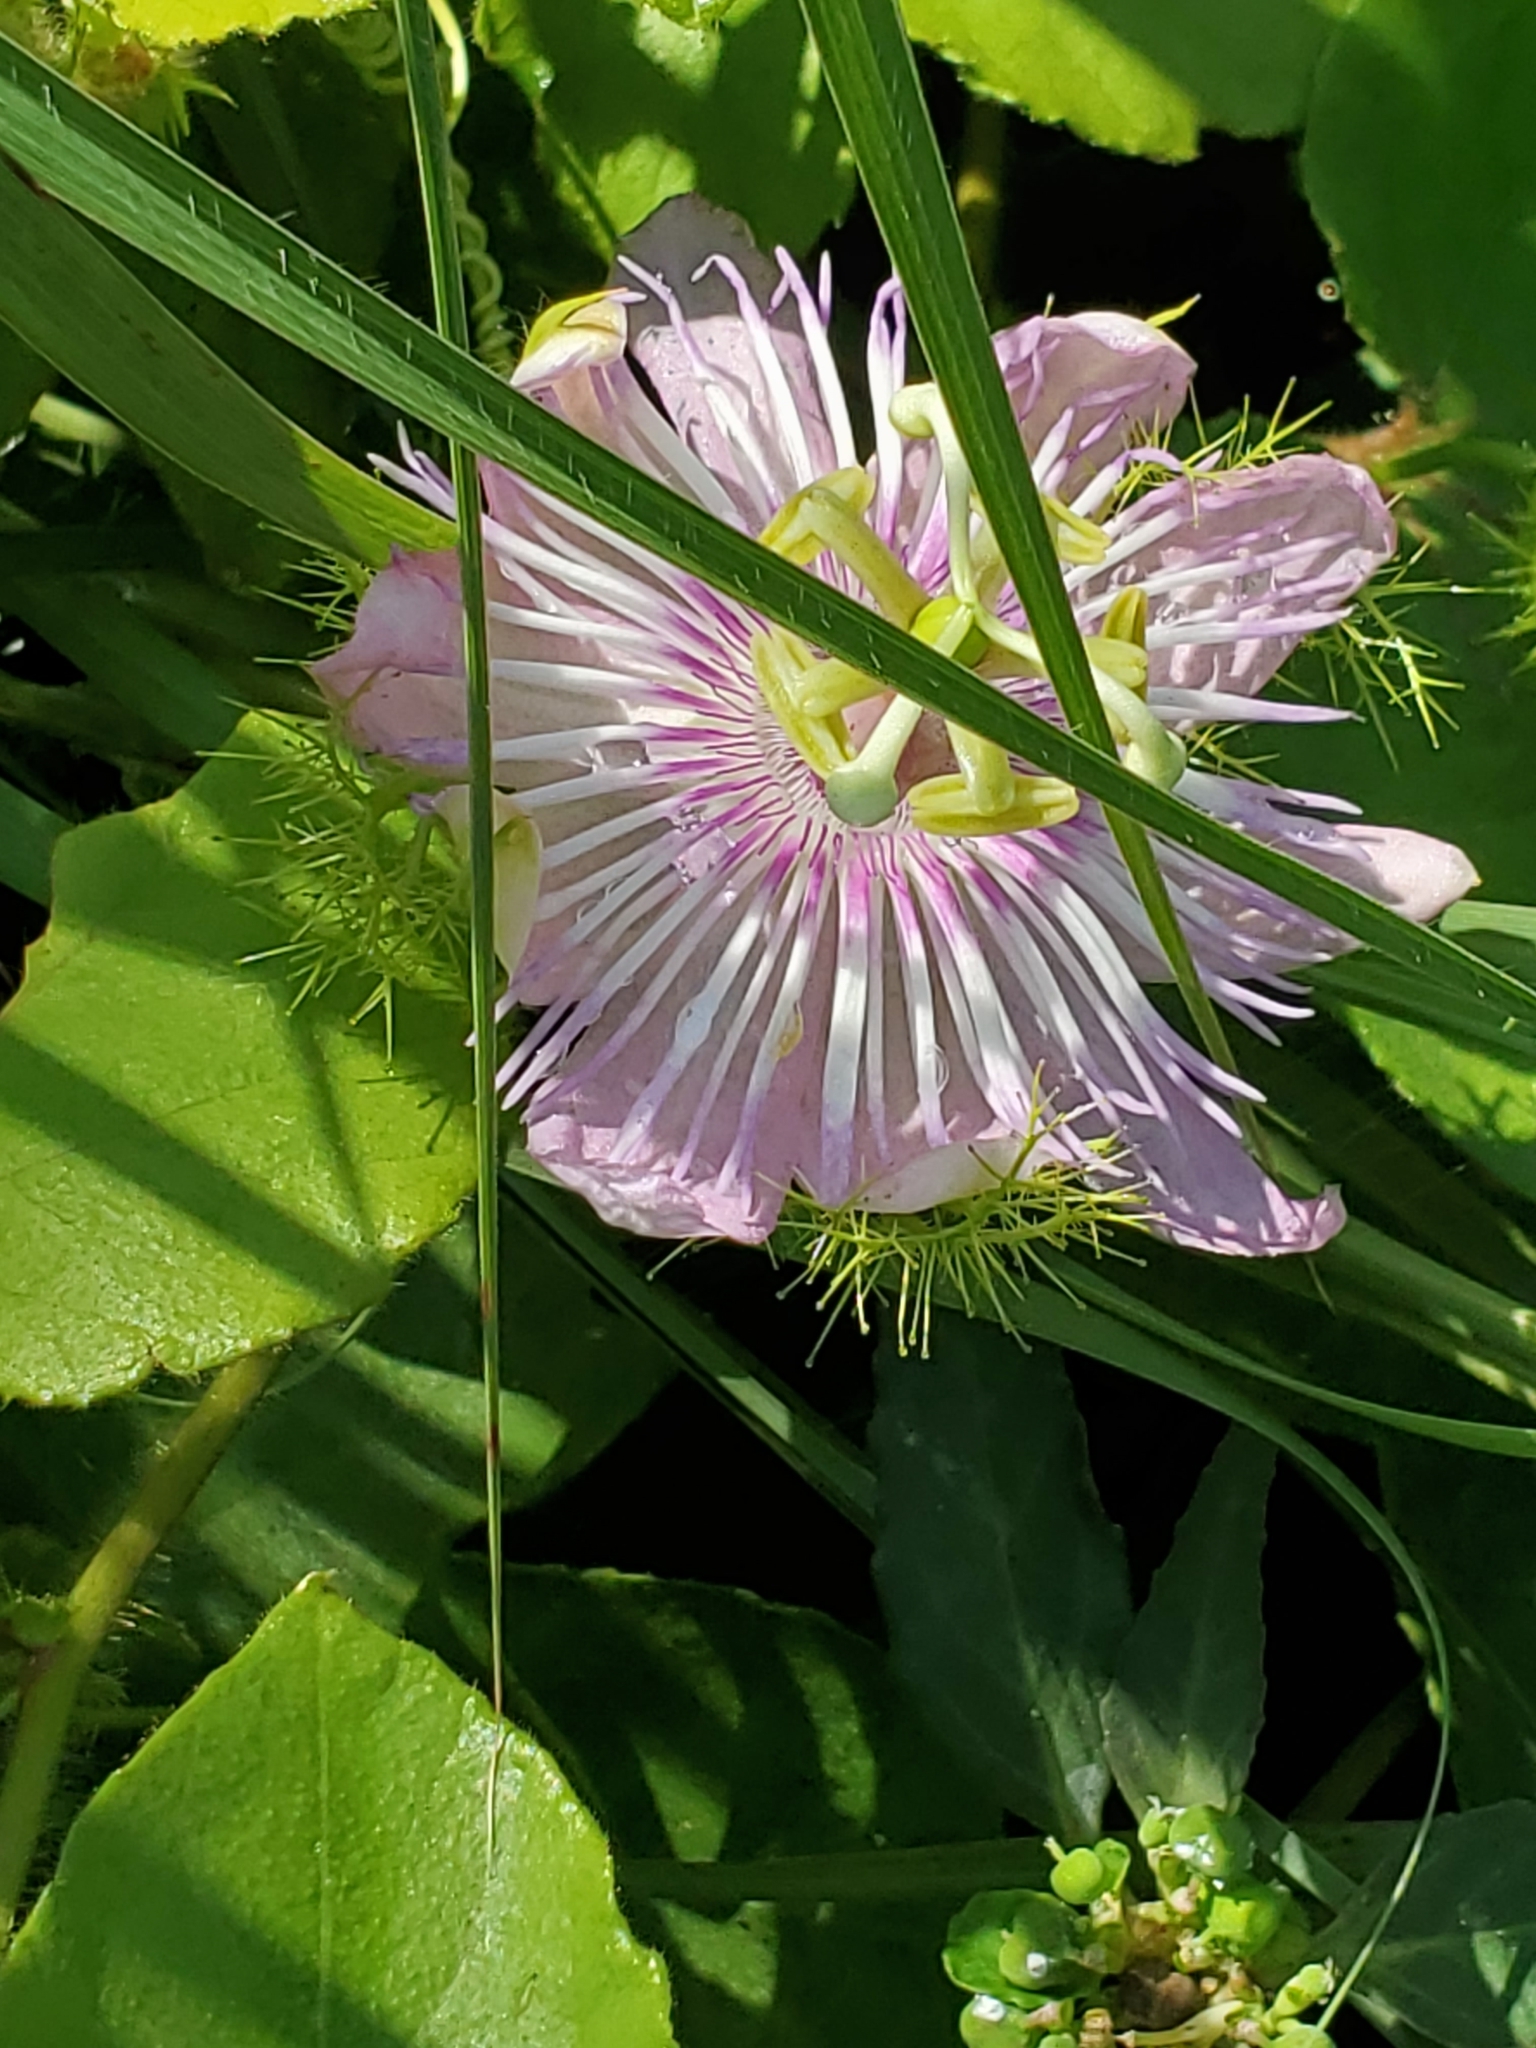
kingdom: Plantae
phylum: Tracheophyta
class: Magnoliopsida
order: Malpighiales
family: Passifloraceae
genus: Passiflora
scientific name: Passiflora
